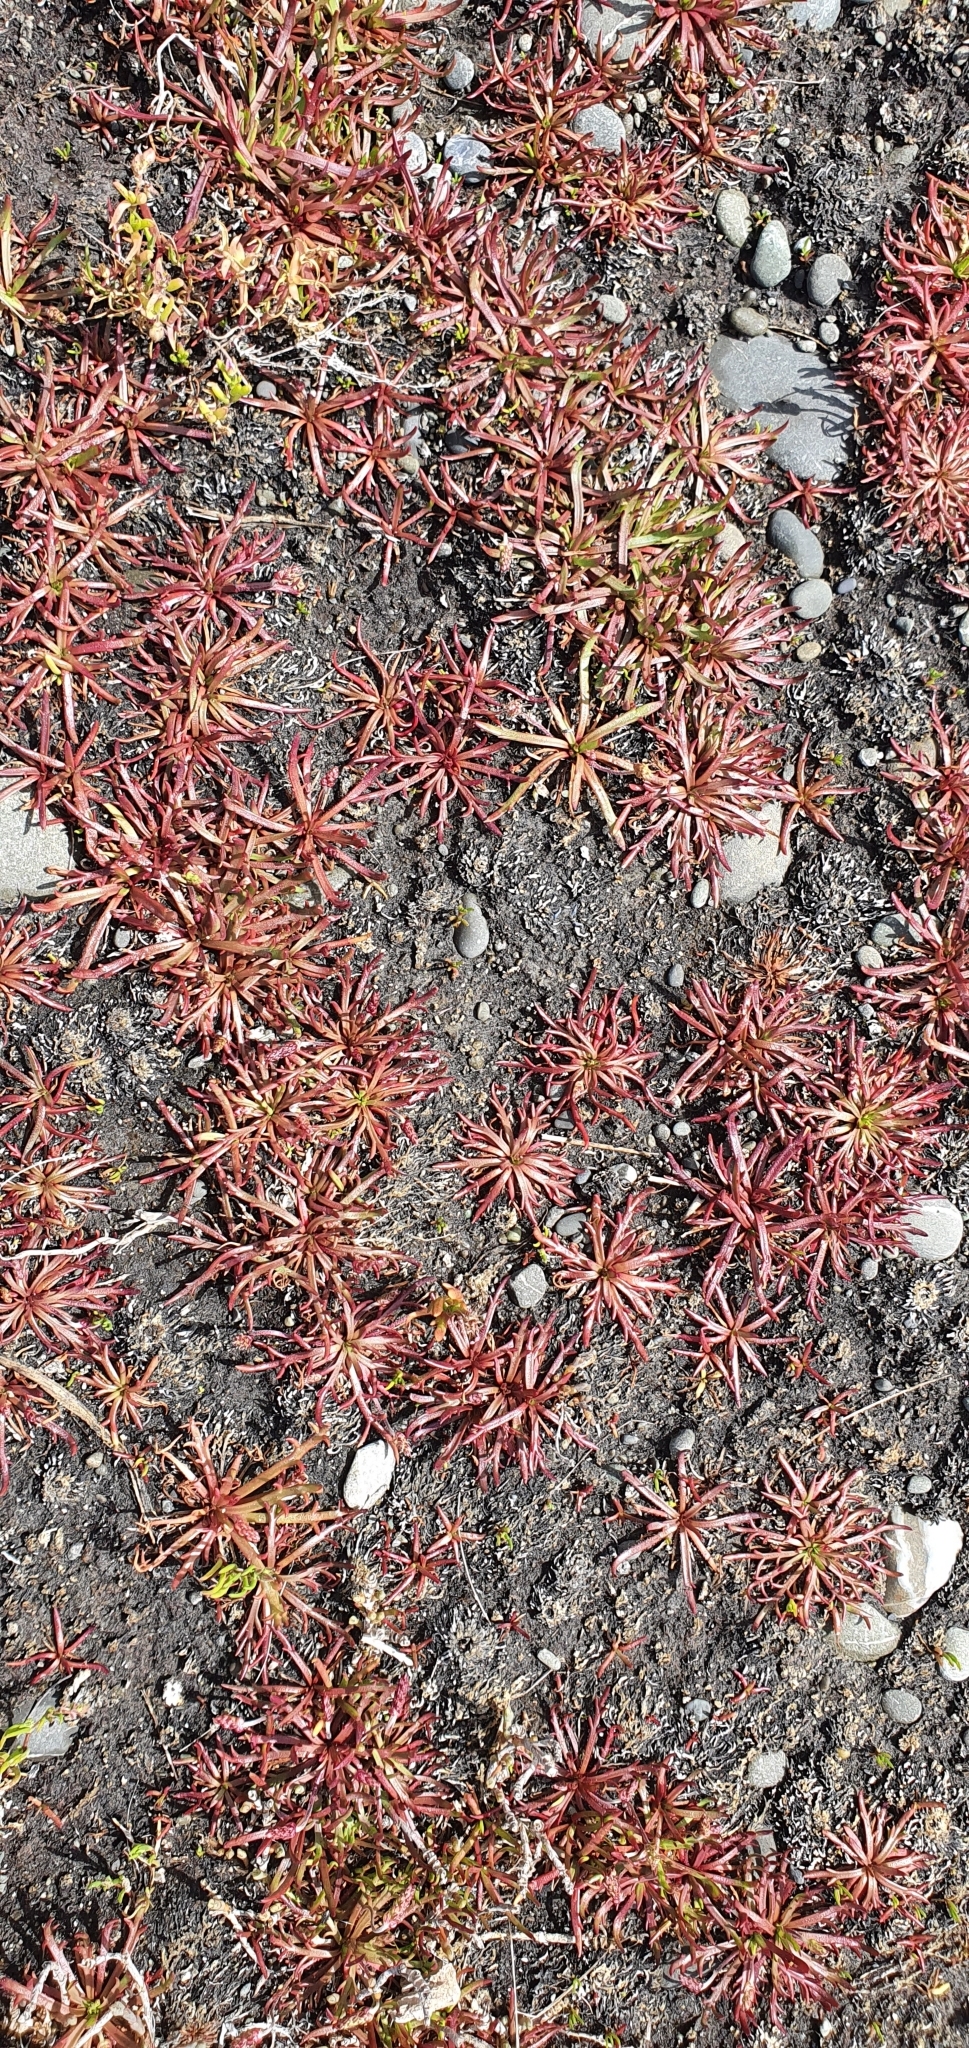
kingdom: Plantae
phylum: Tracheophyta
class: Magnoliopsida
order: Lamiales
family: Plantaginaceae
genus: Plantago
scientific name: Plantago coronopus
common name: Buck's-horn plantain
